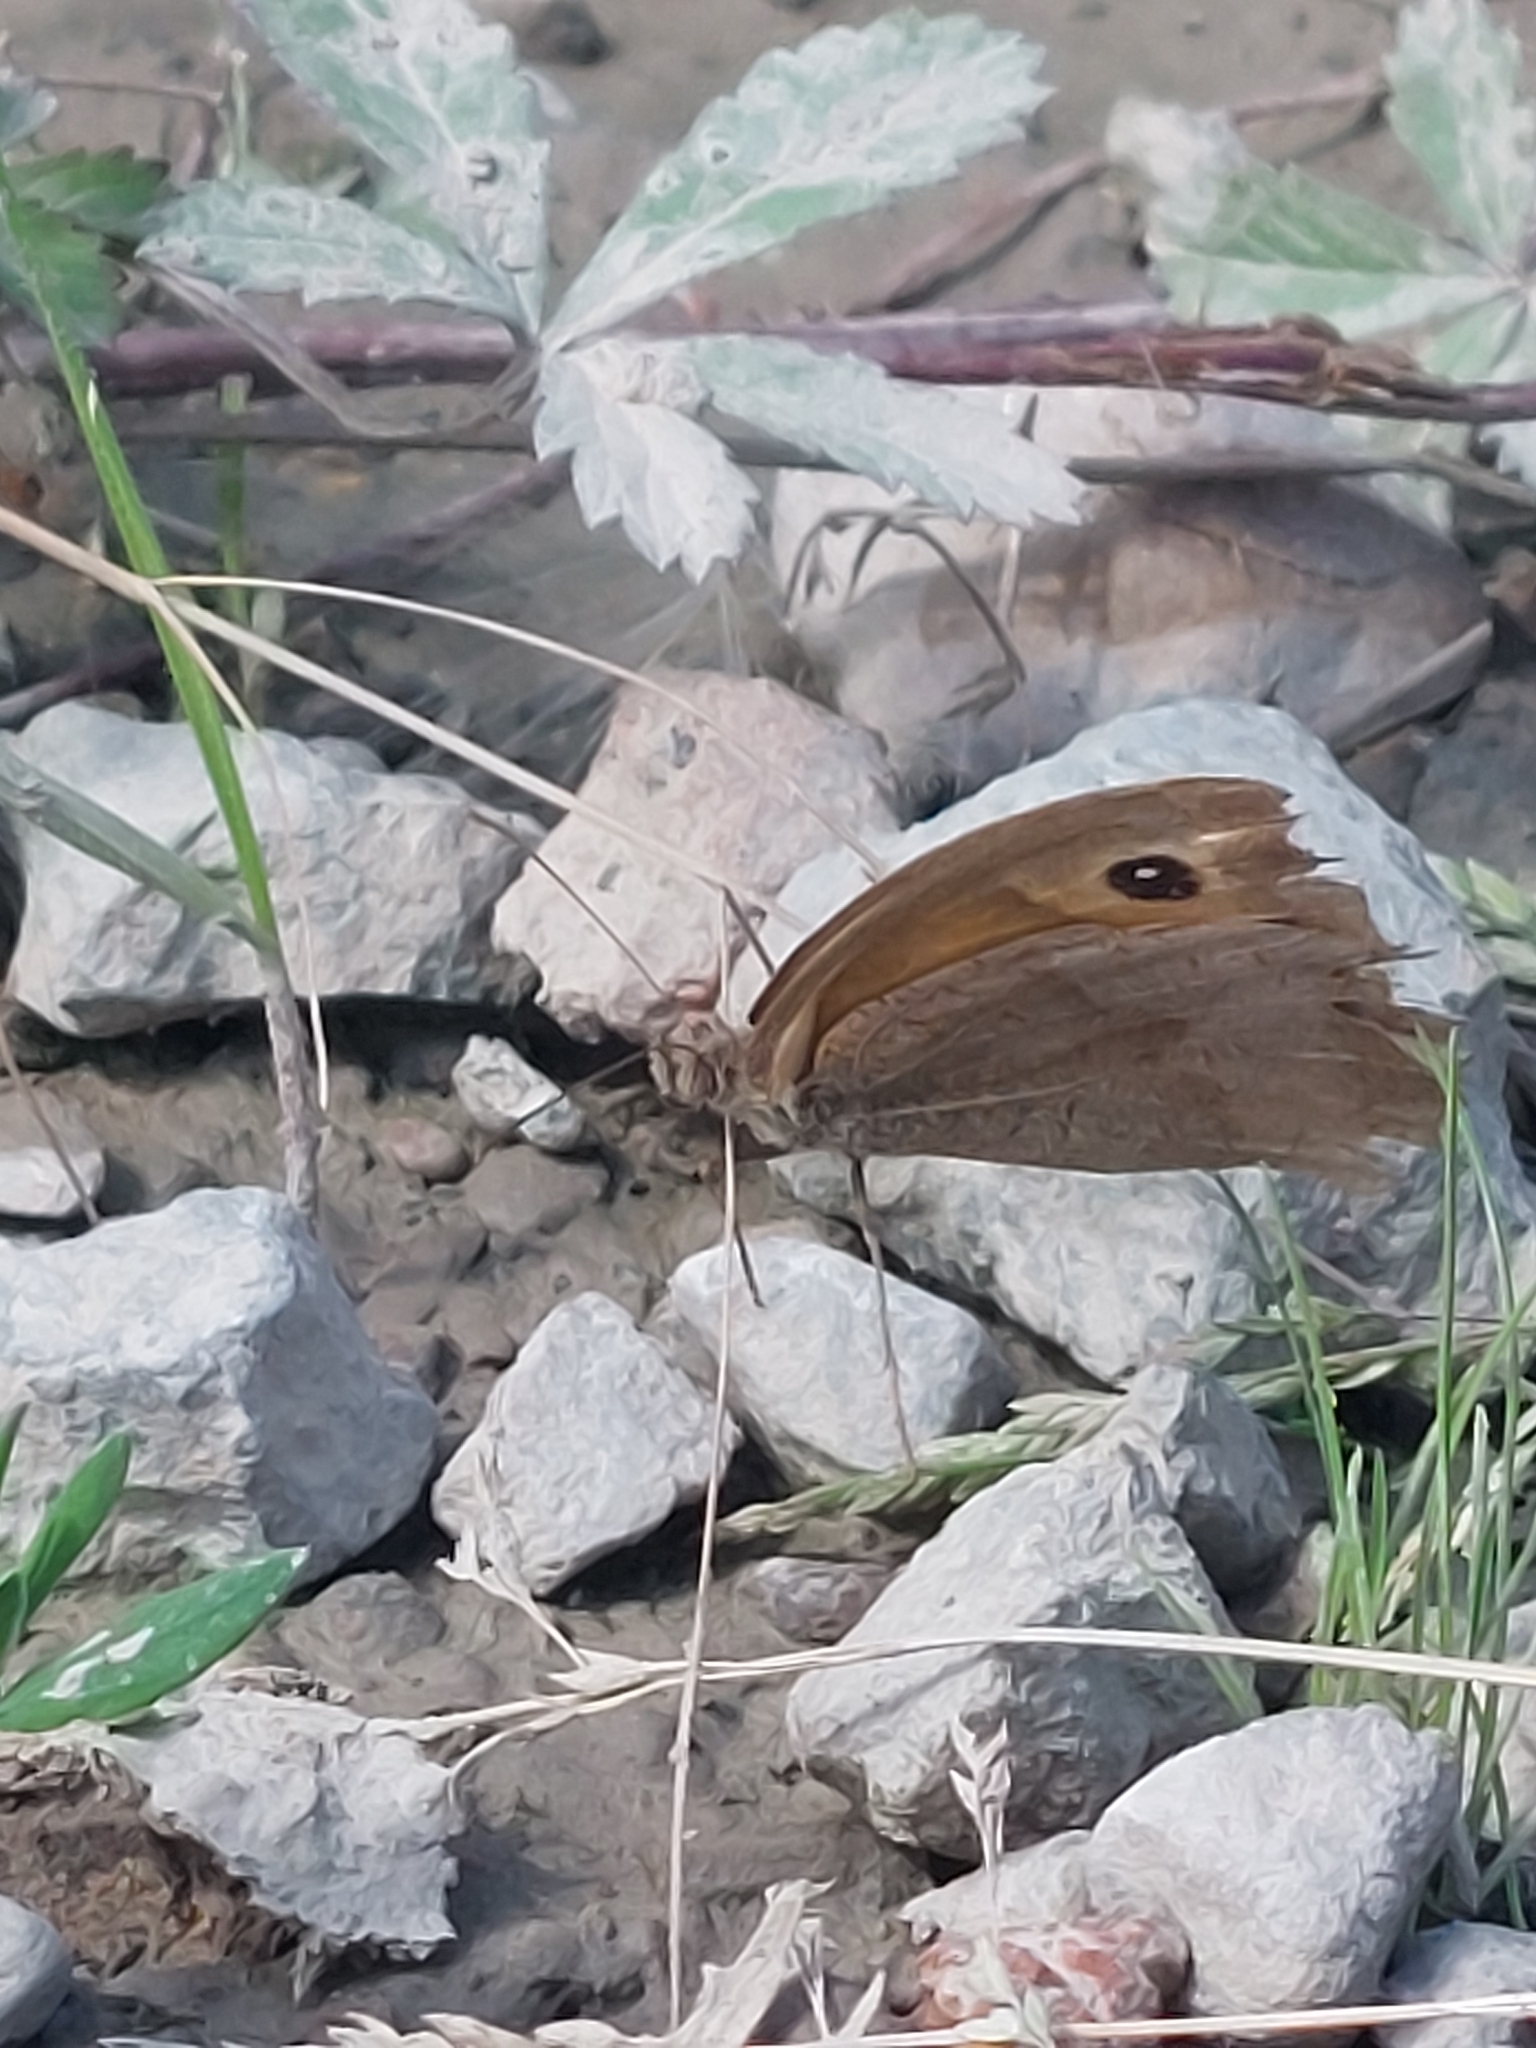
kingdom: Animalia
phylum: Arthropoda
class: Insecta
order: Lepidoptera
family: Nymphalidae
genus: Maniola
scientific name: Maniola jurtina
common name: Meadow brown
